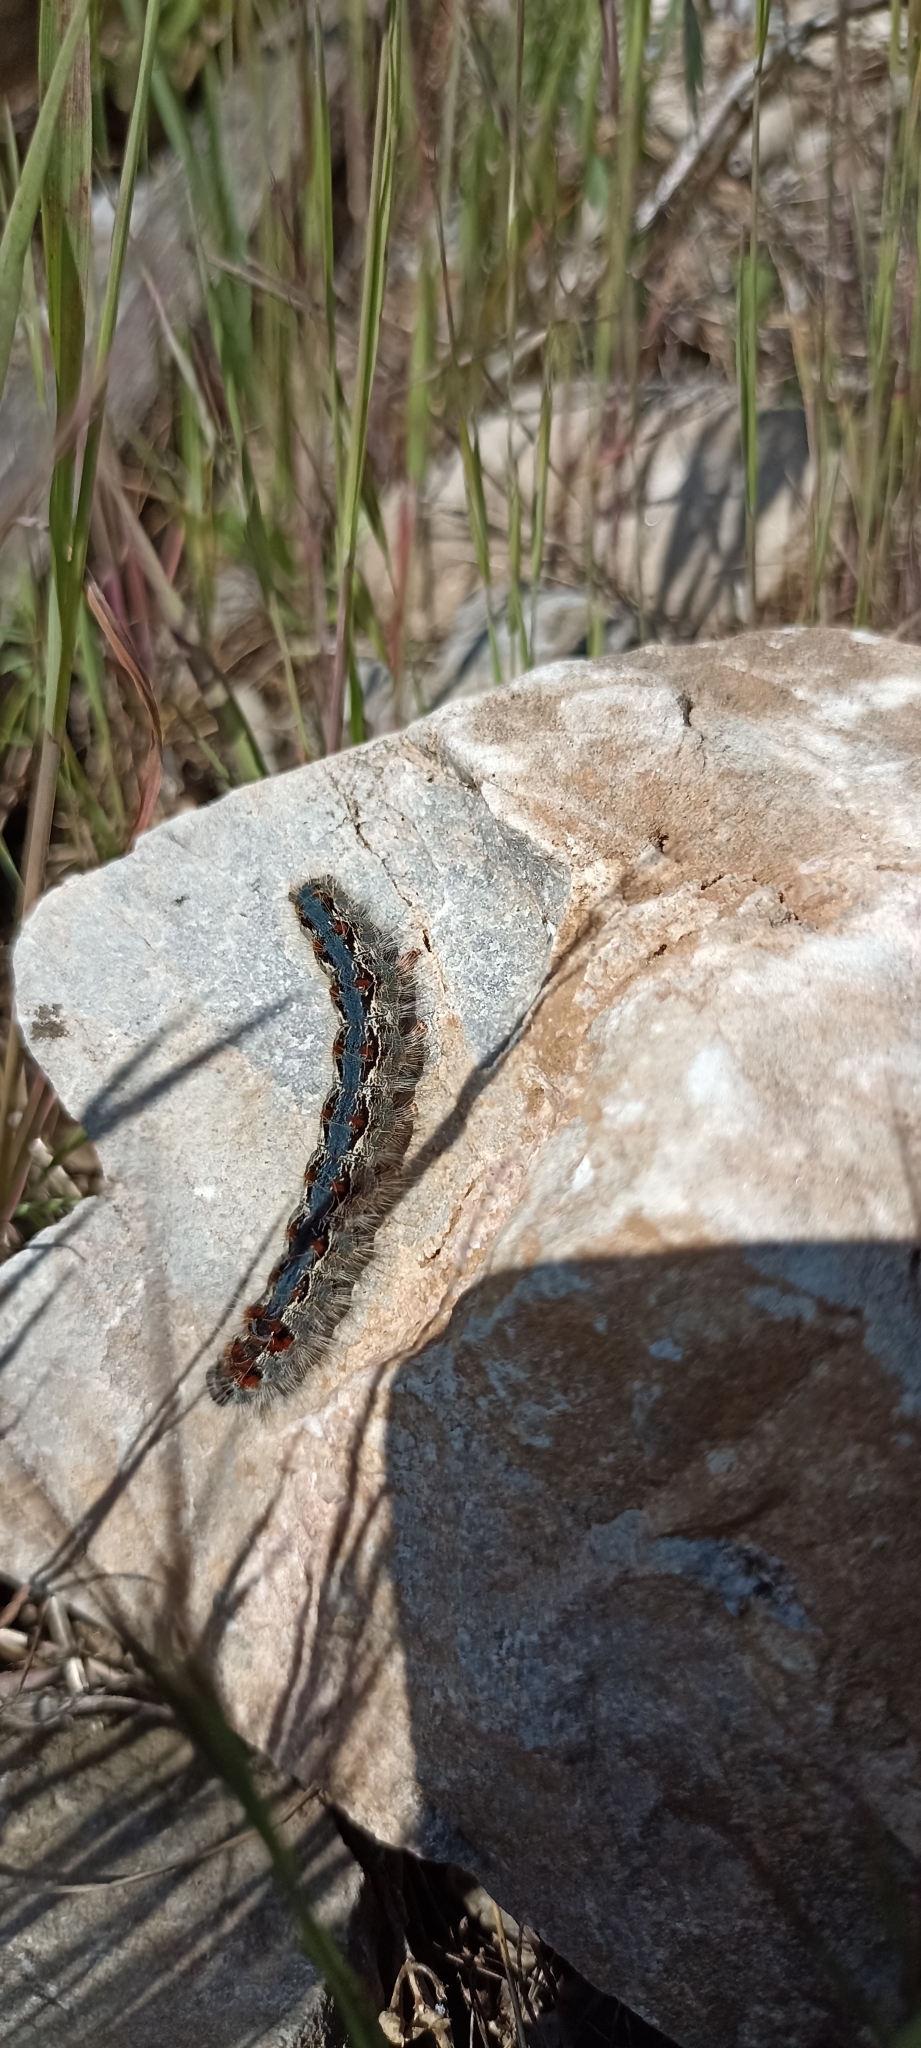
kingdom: Animalia
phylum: Arthropoda
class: Insecta
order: Lepidoptera
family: Lasiocampidae
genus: Eriogaster
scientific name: Eriogaster rimicola
